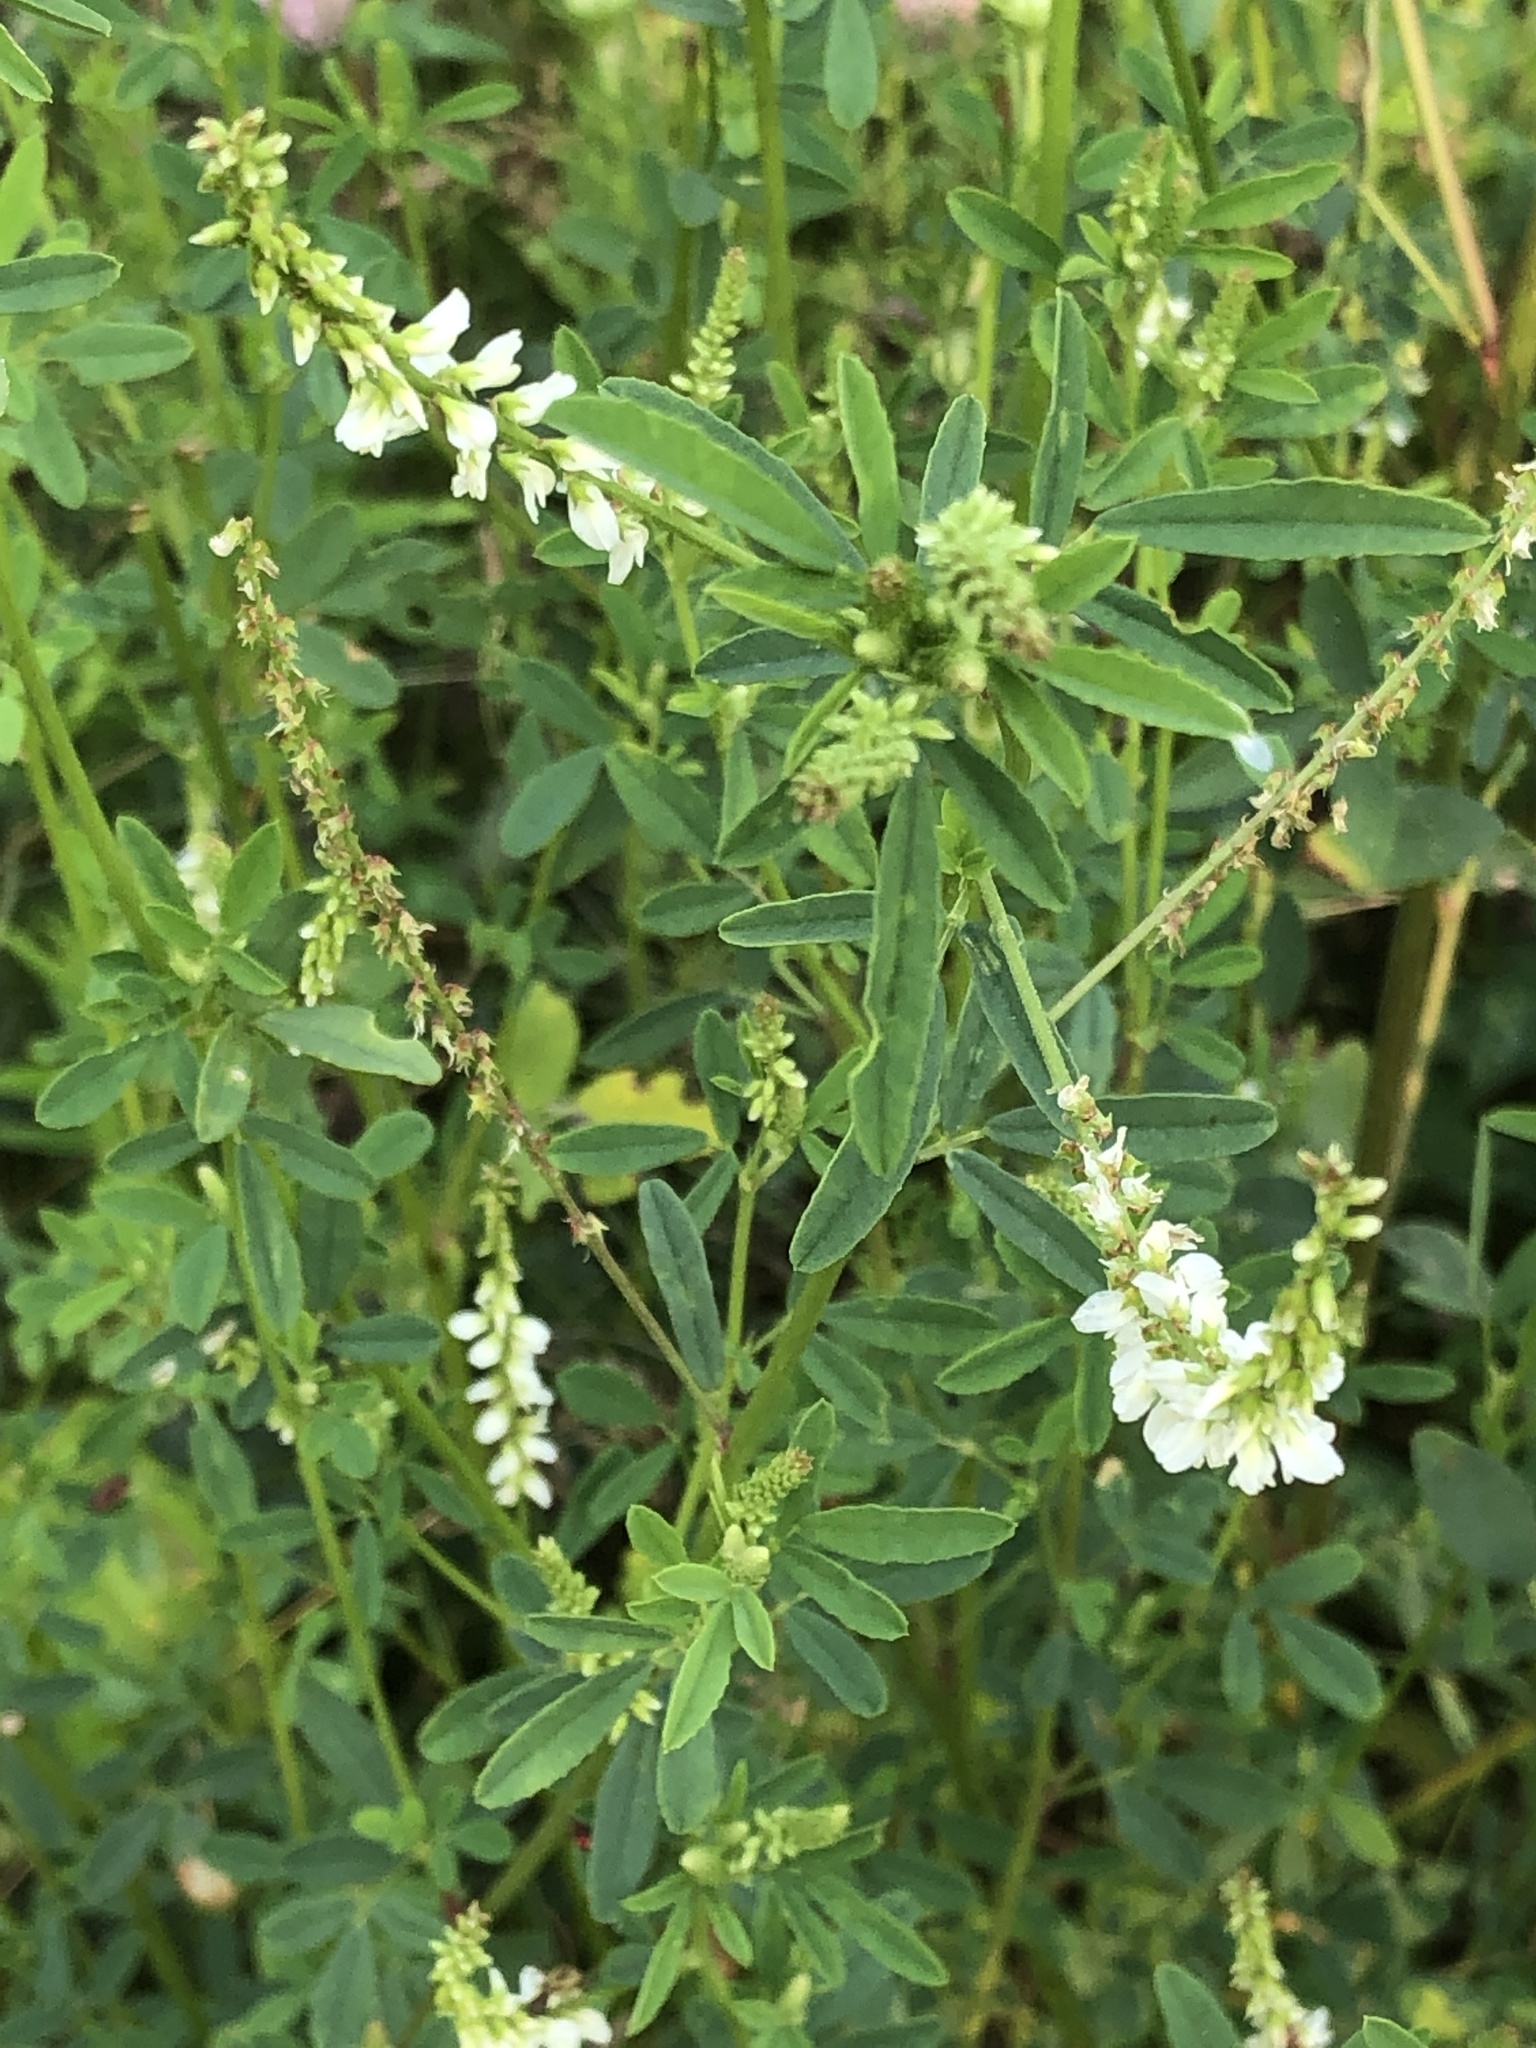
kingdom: Plantae
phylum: Tracheophyta
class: Magnoliopsida
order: Fabales
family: Fabaceae
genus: Melilotus
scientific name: Melilotus albus
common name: White melilot
